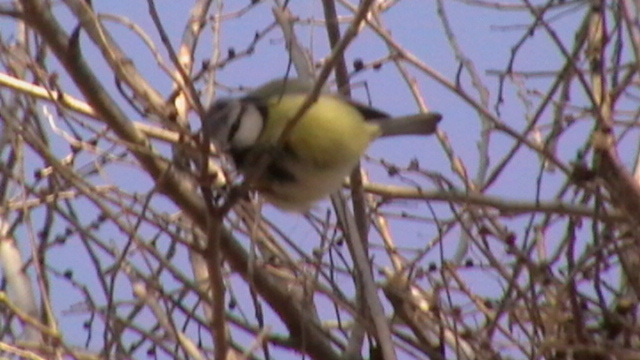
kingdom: Animalia
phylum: Chordata
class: Aves
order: Passeriformes
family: Paridae
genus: Cyanistes
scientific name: Cyanistes caeruleus
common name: Eurasian blue tit
